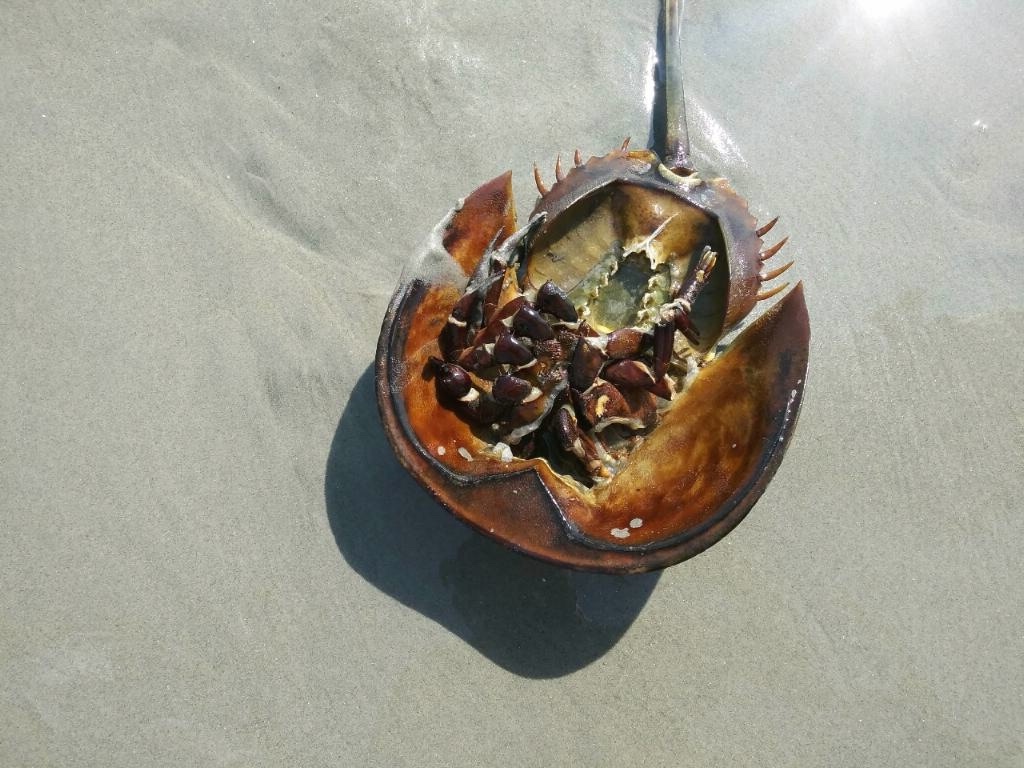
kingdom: Animalia
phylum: Arthropoda
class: Merostomata
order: Xiphosurida
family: Limulidae
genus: Limulus
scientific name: Limulus polyphemus
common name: Horseshoe crab
